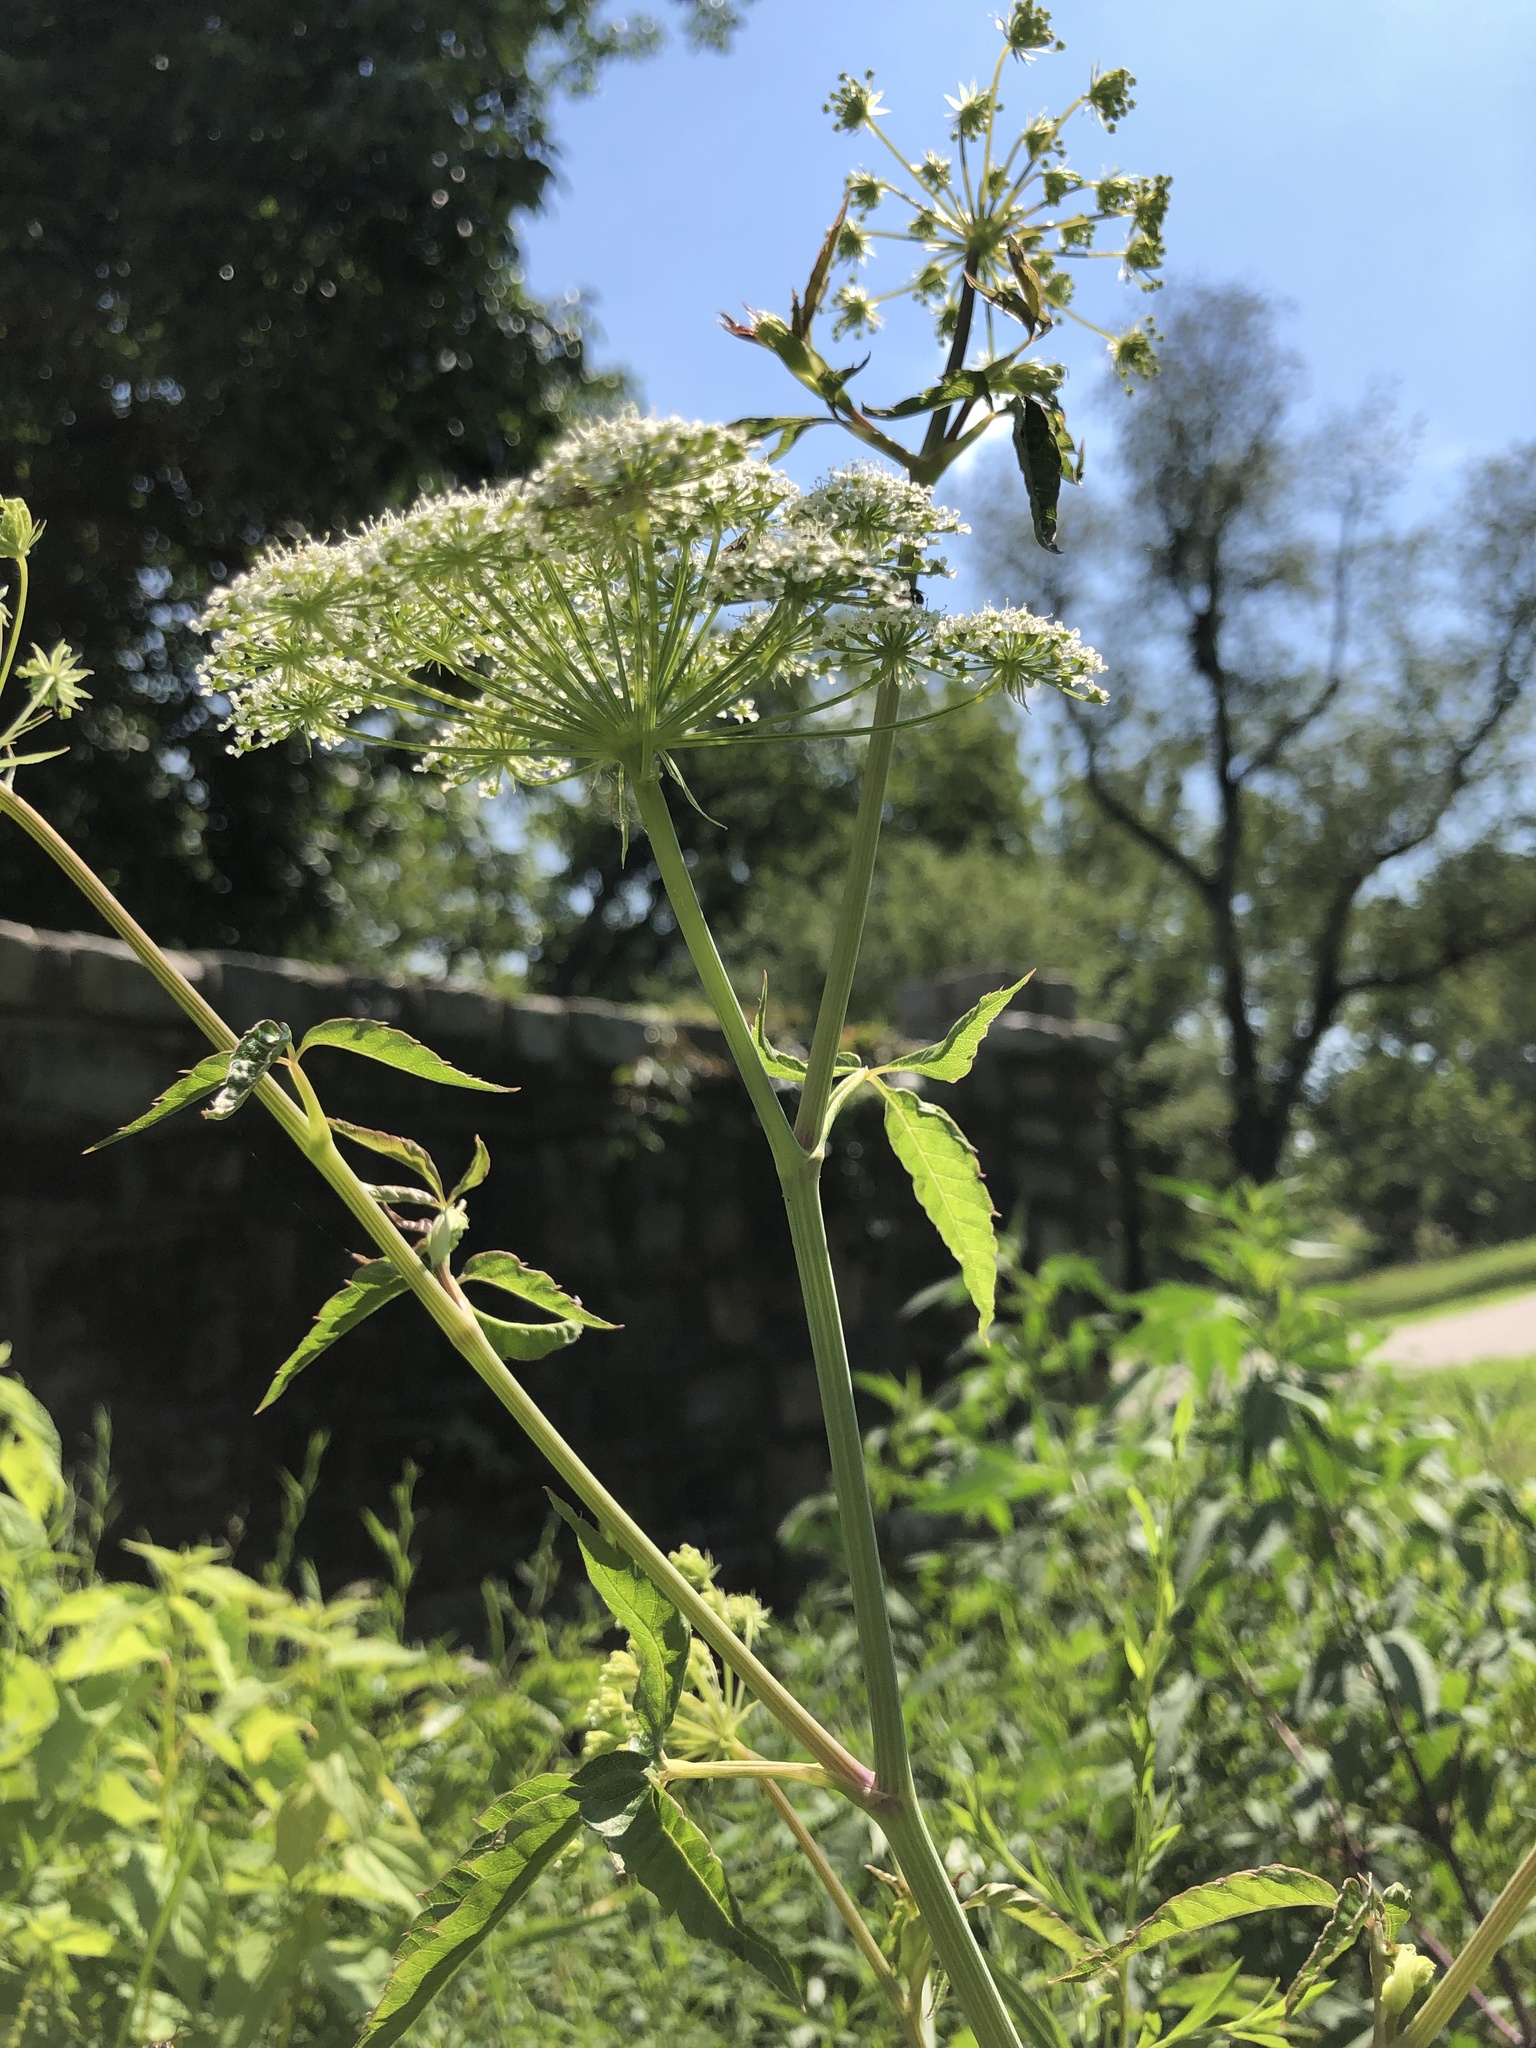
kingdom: Plantae
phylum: Tracheophyta
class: Magnoliopsida
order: Apiales
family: Apiaceae
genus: Cicuta
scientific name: Cicuta maculata
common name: Spotted cowbane
